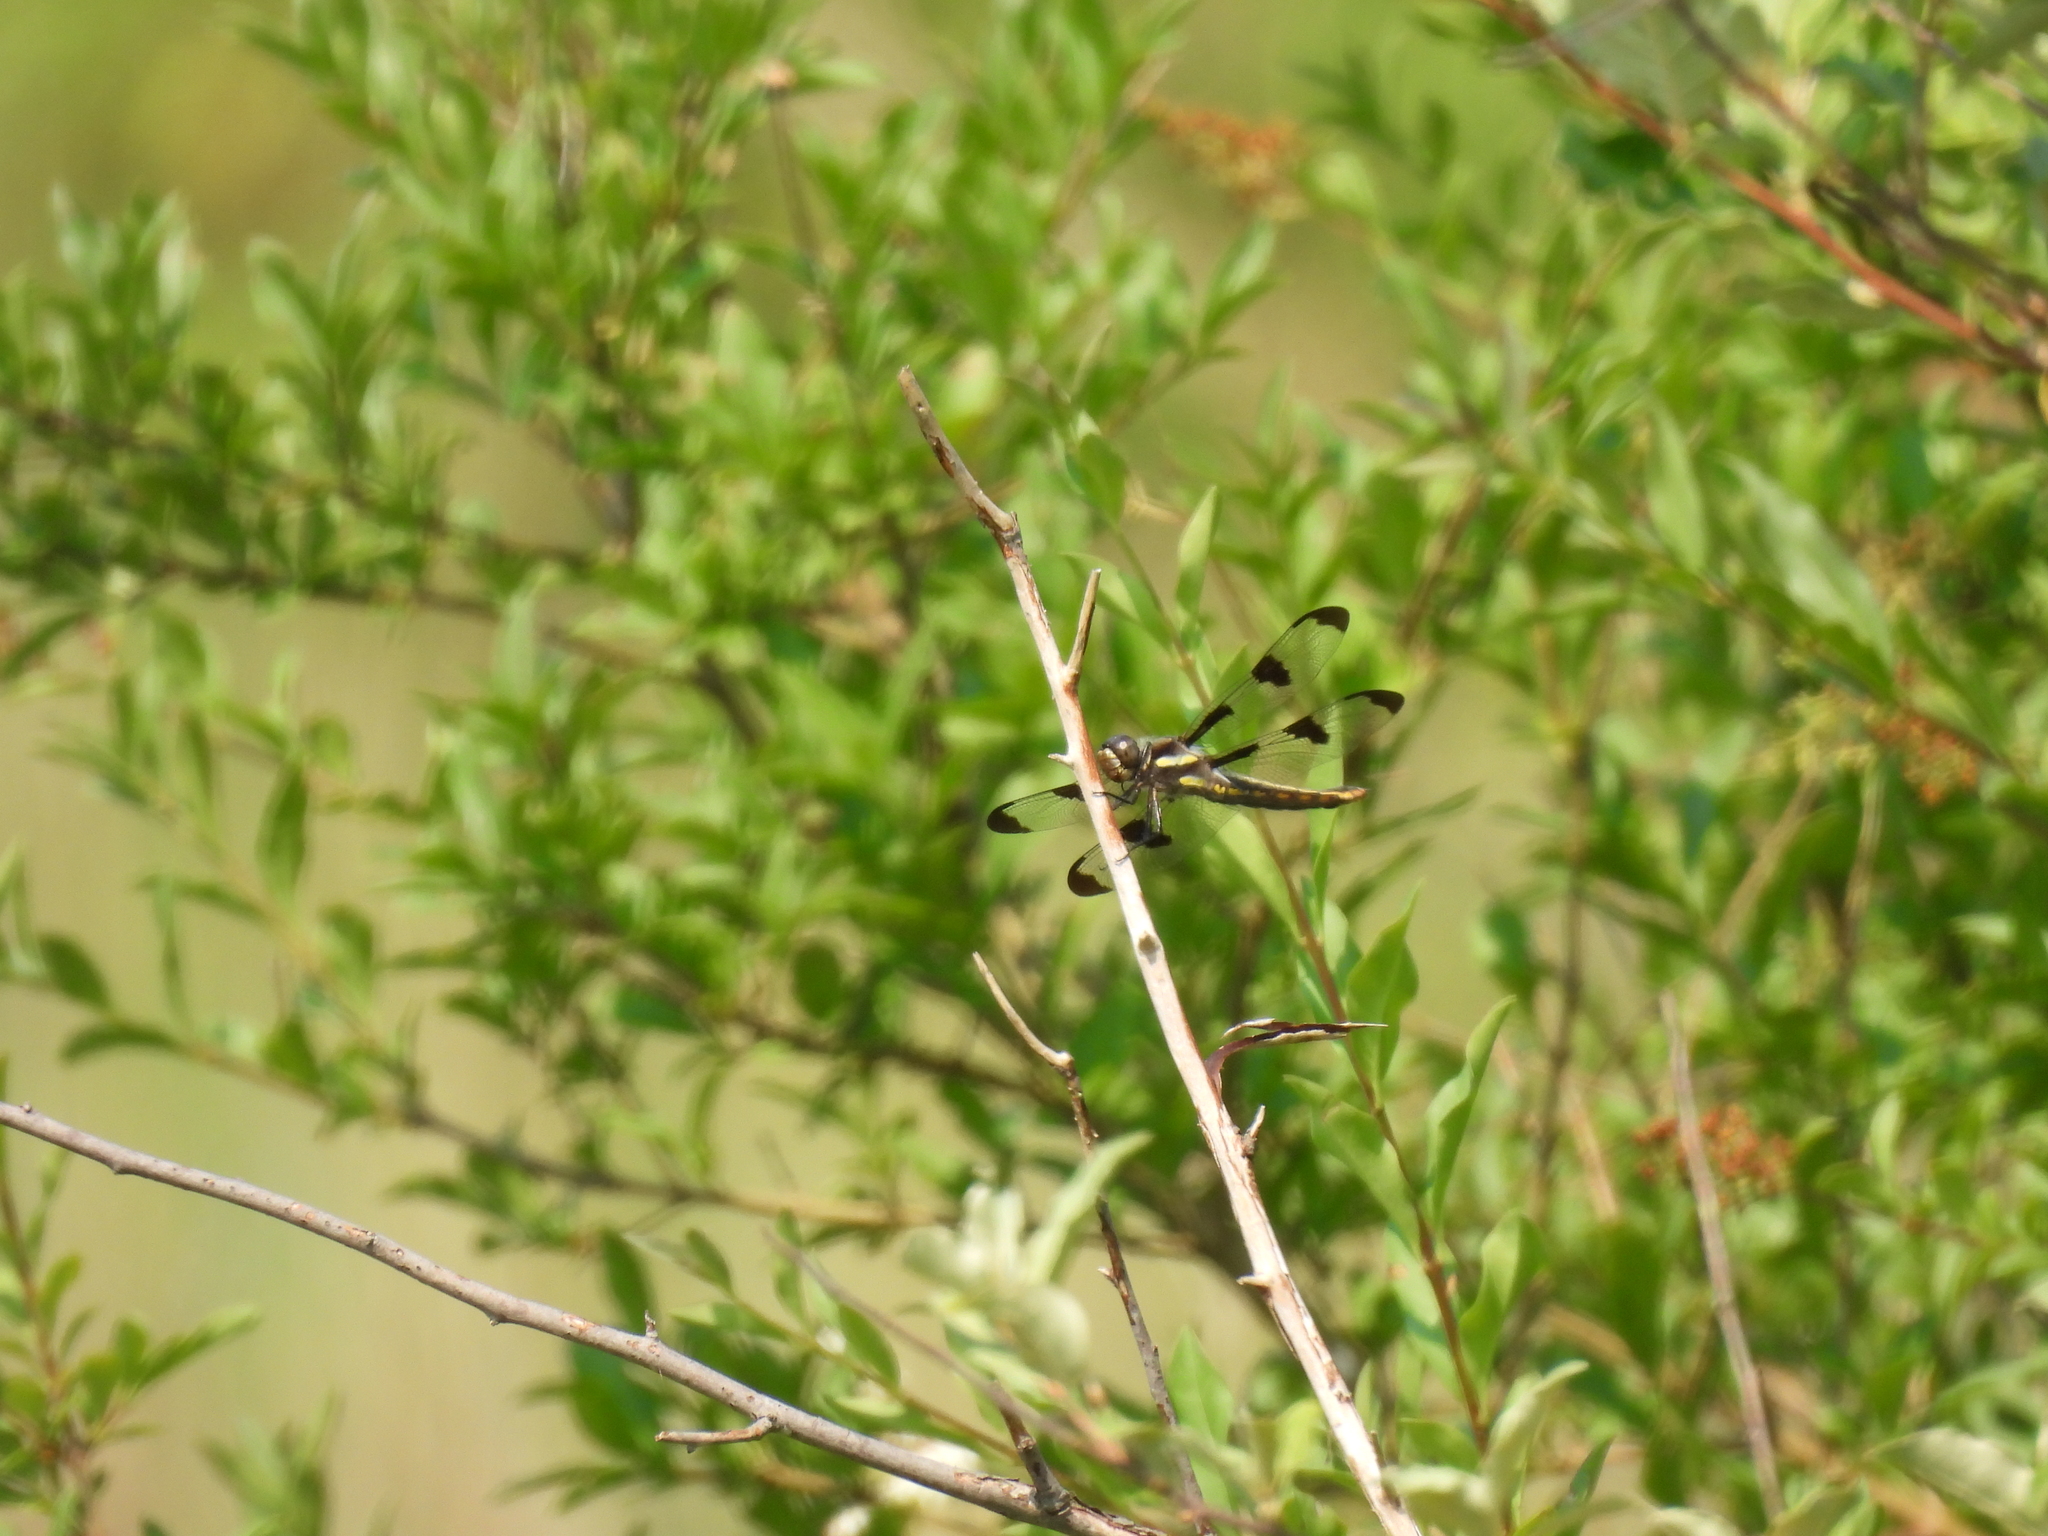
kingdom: Animalia
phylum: Arthropoda
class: Insecta
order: Odonata
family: Libellulidae
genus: Libellula
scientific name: Libellula pulchella
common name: Twelve-spotted skimmer
